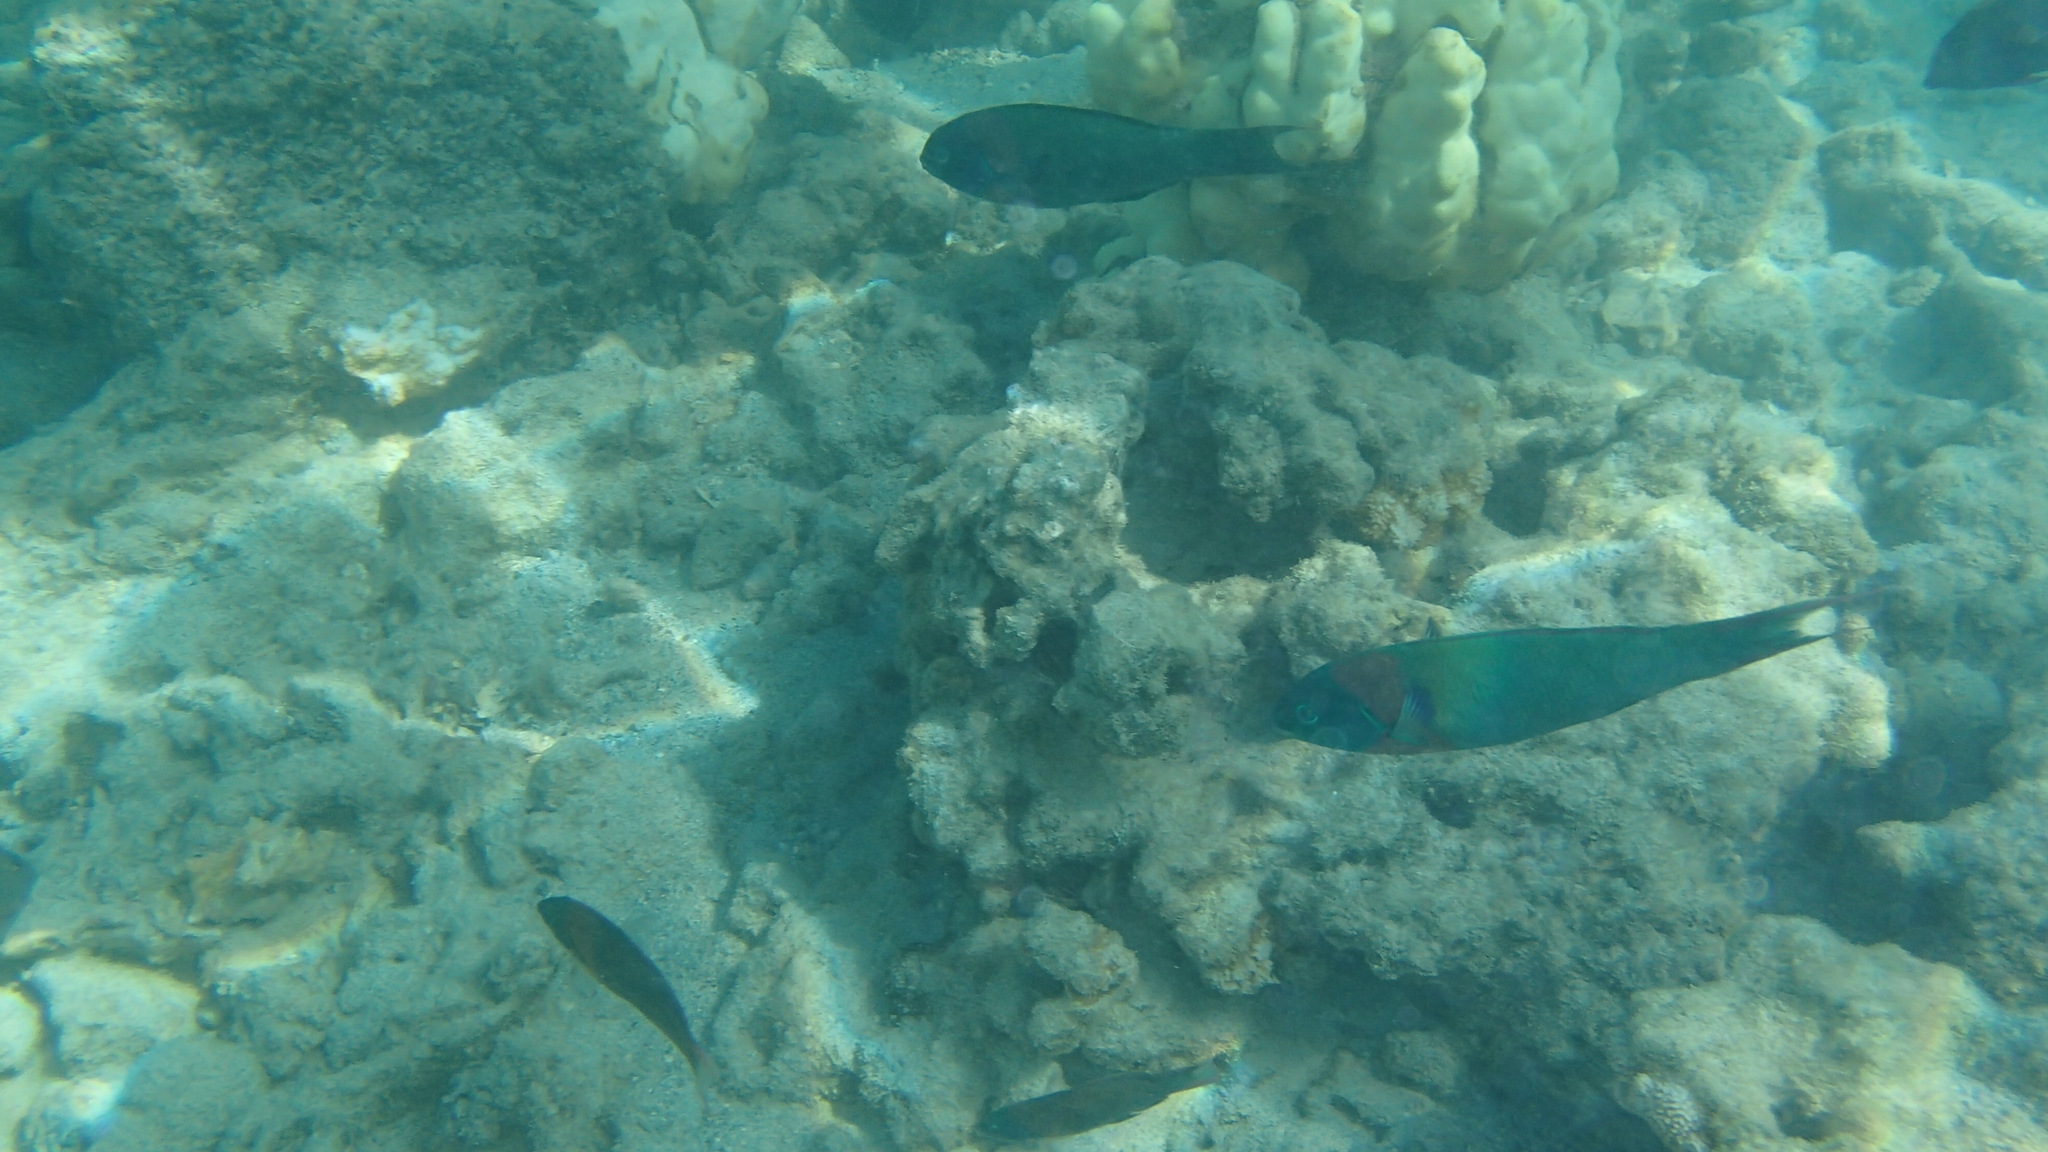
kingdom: Animalia
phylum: Chordata
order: Perciformes
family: Labridae
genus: Thalassoma
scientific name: Thalassoma duperrey
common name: Saddle wrasse
